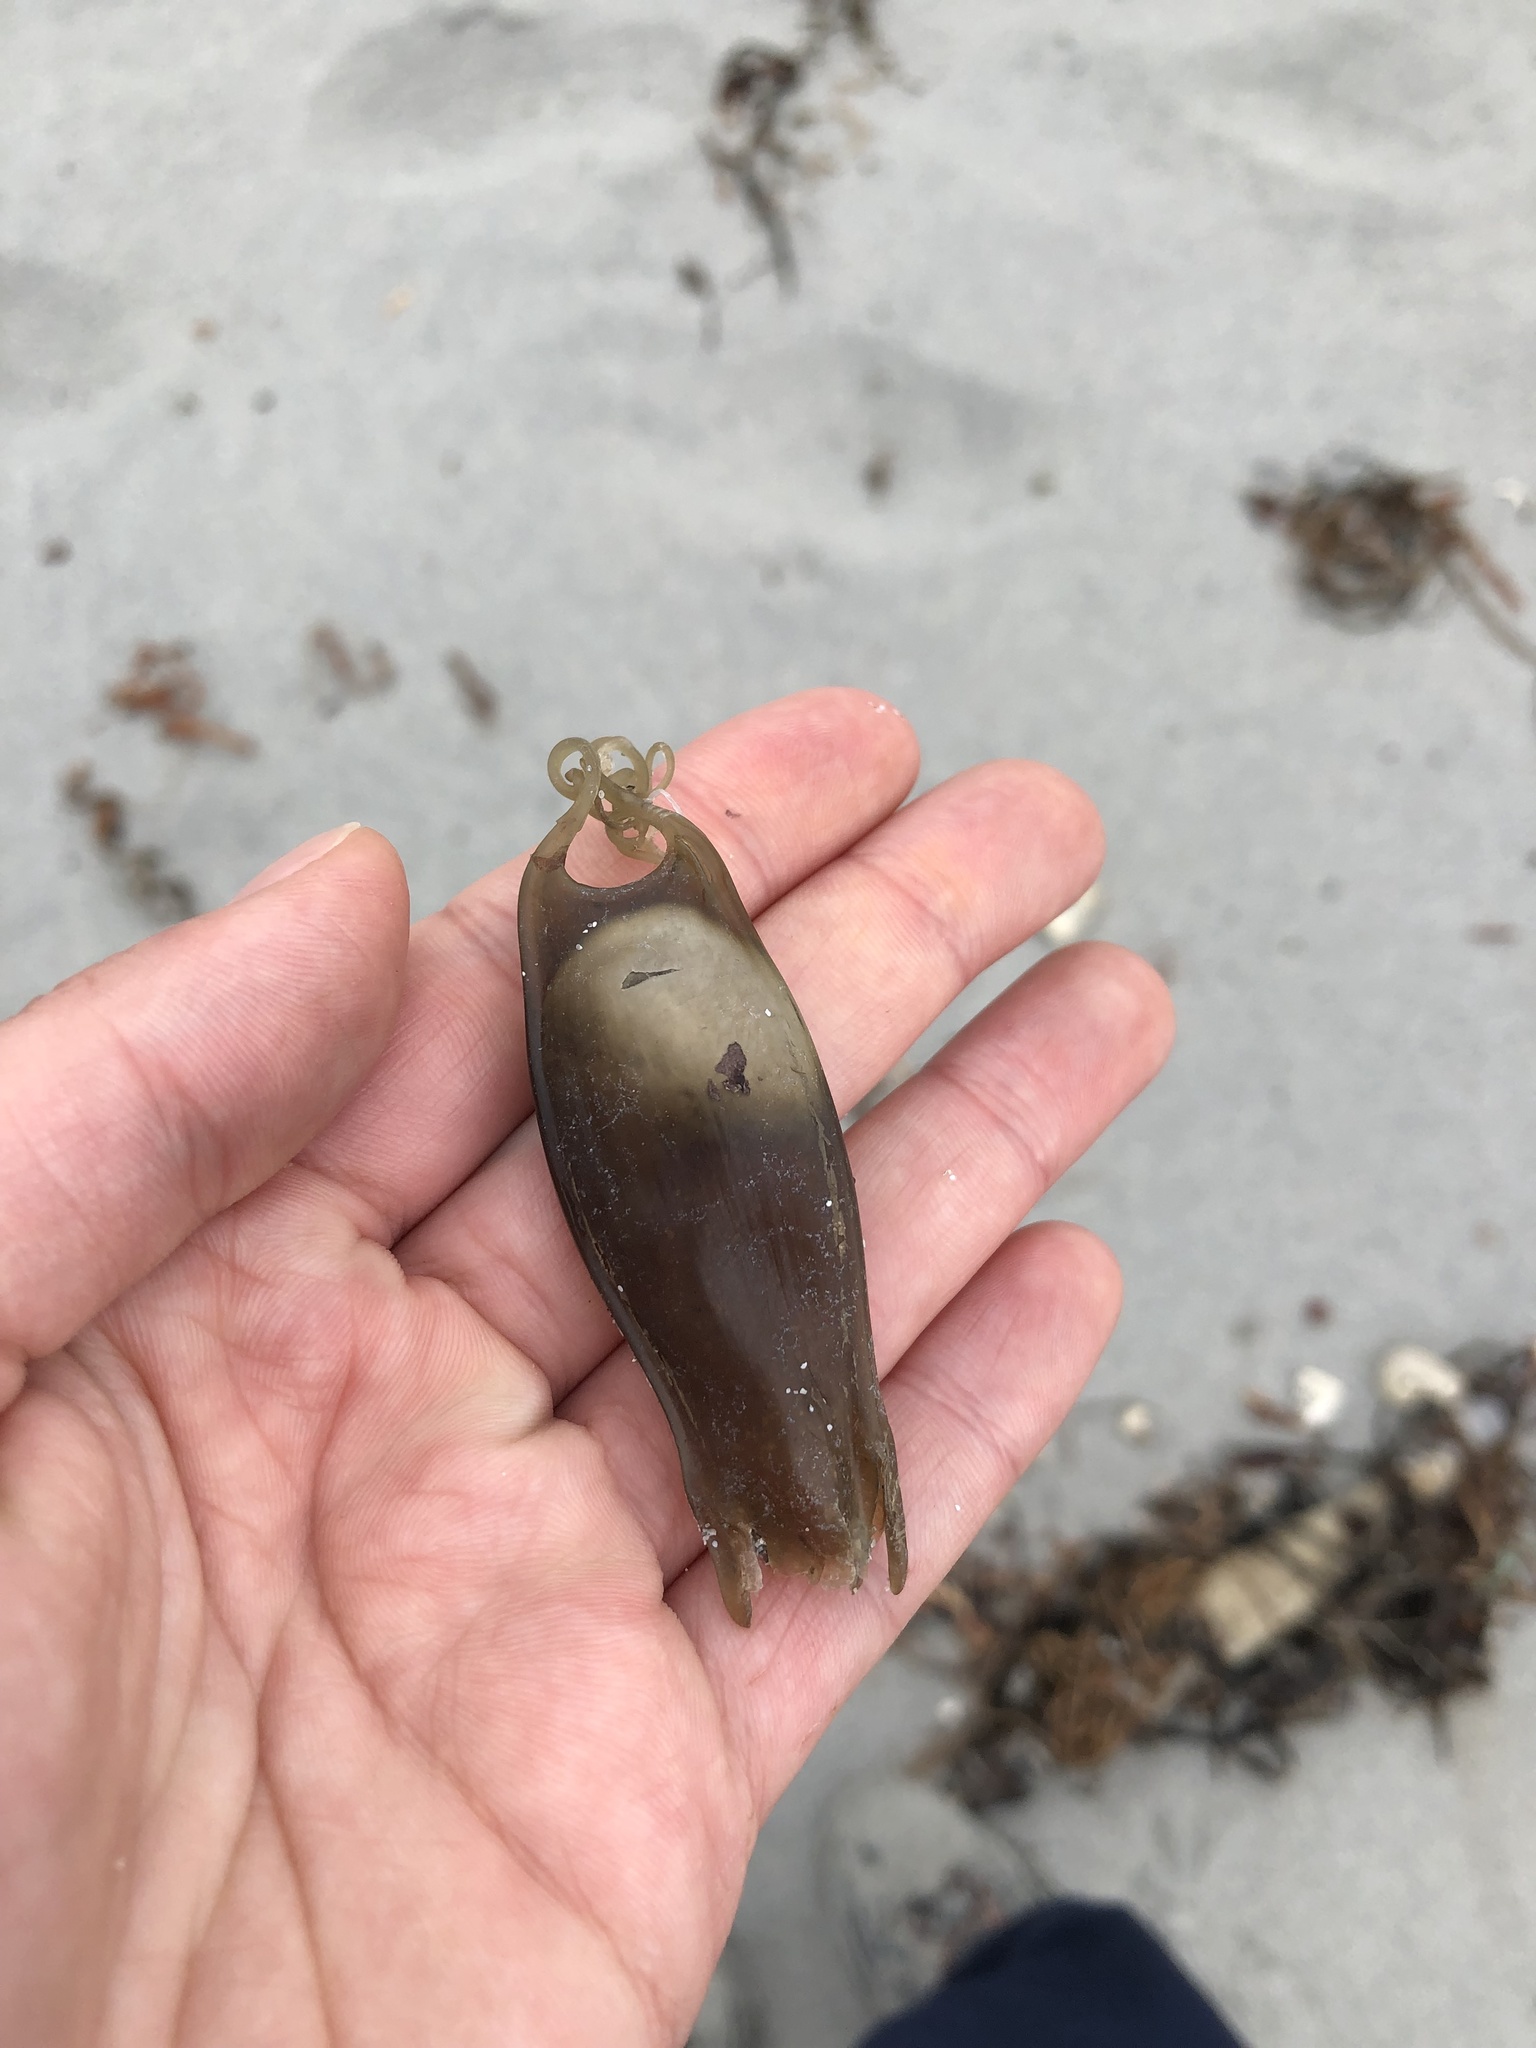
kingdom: Animalia
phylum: Chordata
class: Elasmobranchii
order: Carcharhiniformes
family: Scyliorhinidae
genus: Scyliorhinus
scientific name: Scyliorhinus canicula
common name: Lesser spotted dogfish
